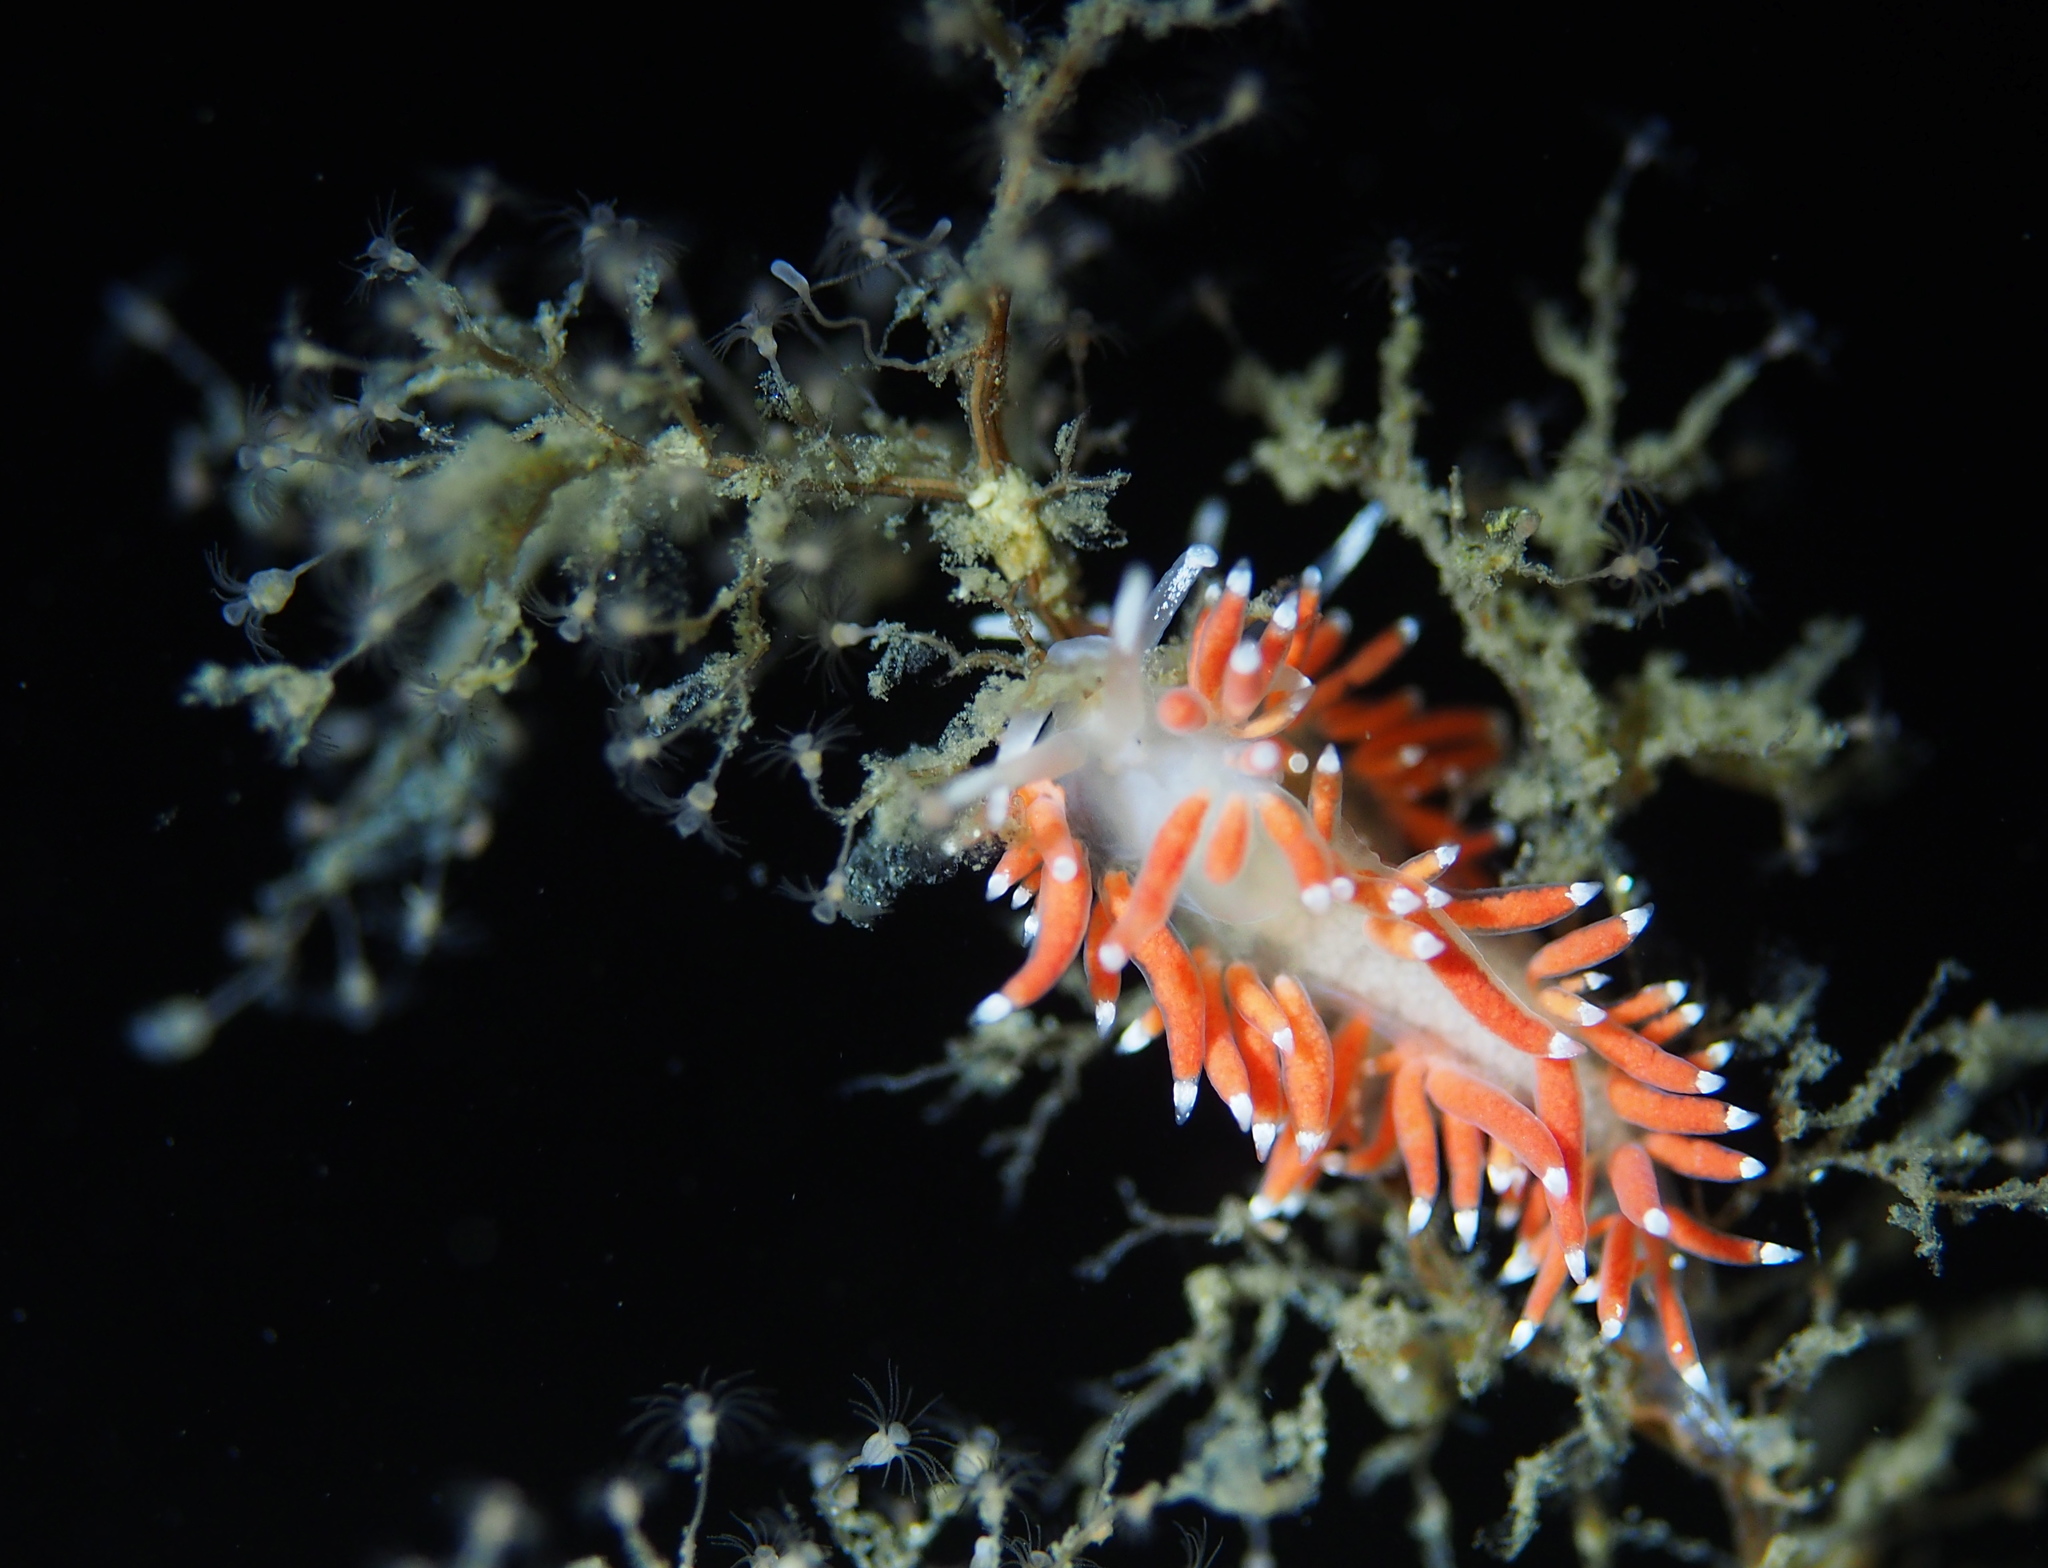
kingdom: Animalia
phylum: Mollusca
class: Gastropoda
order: Nudibranchia
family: Coryphellidae
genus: Coryphella
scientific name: Coryphella gracilis
